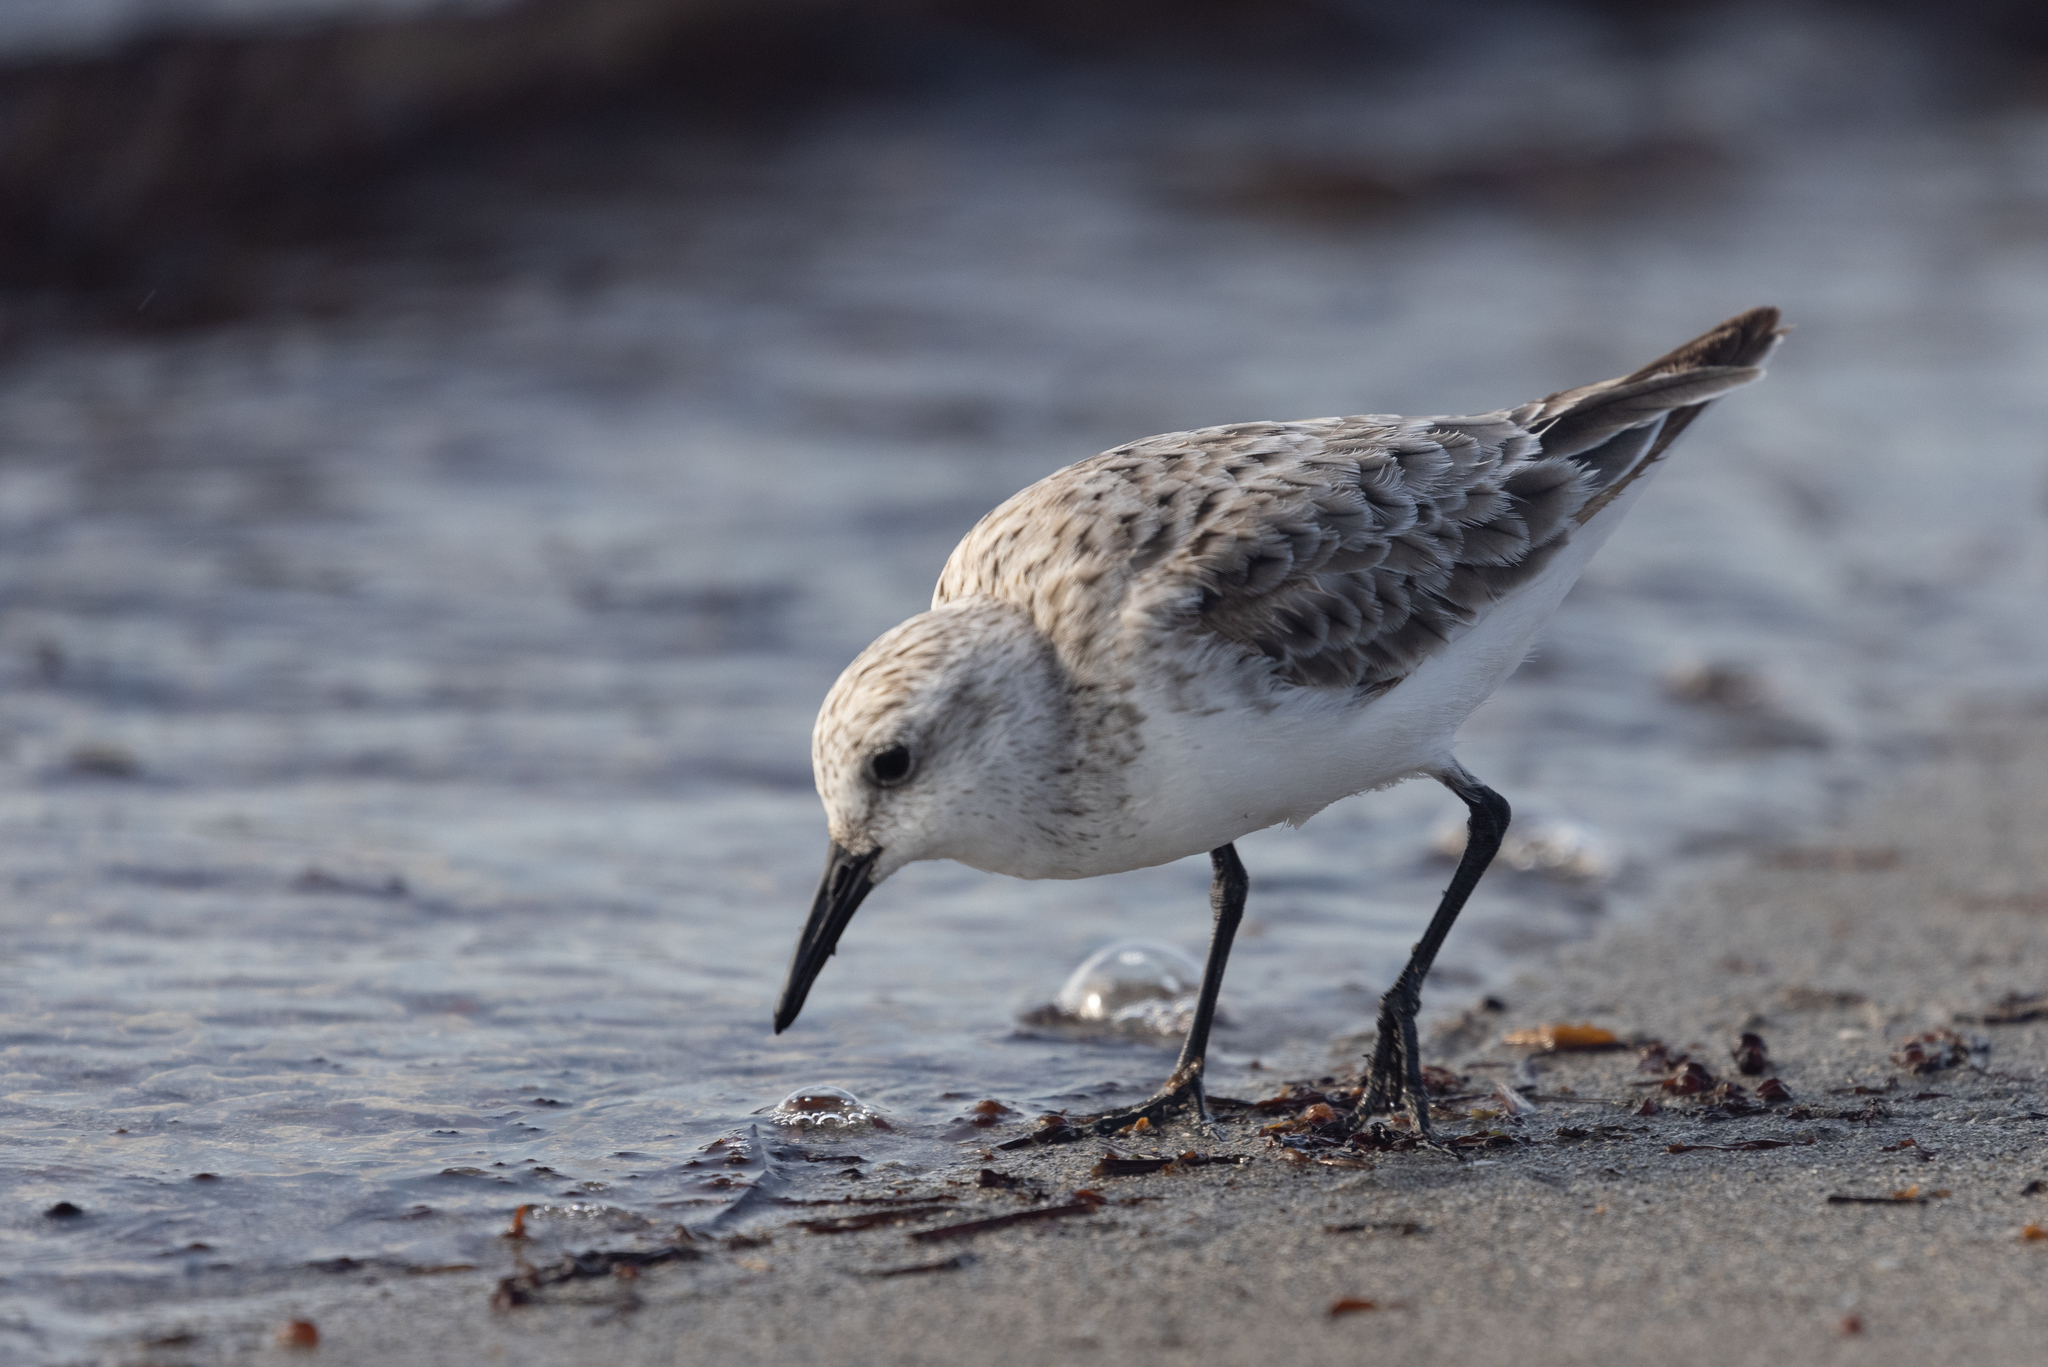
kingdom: Animalia
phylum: Chordata
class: Aves
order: Charadriiformes
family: Scolopacidae
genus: Calidris
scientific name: Calidris alba
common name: Sanderling
